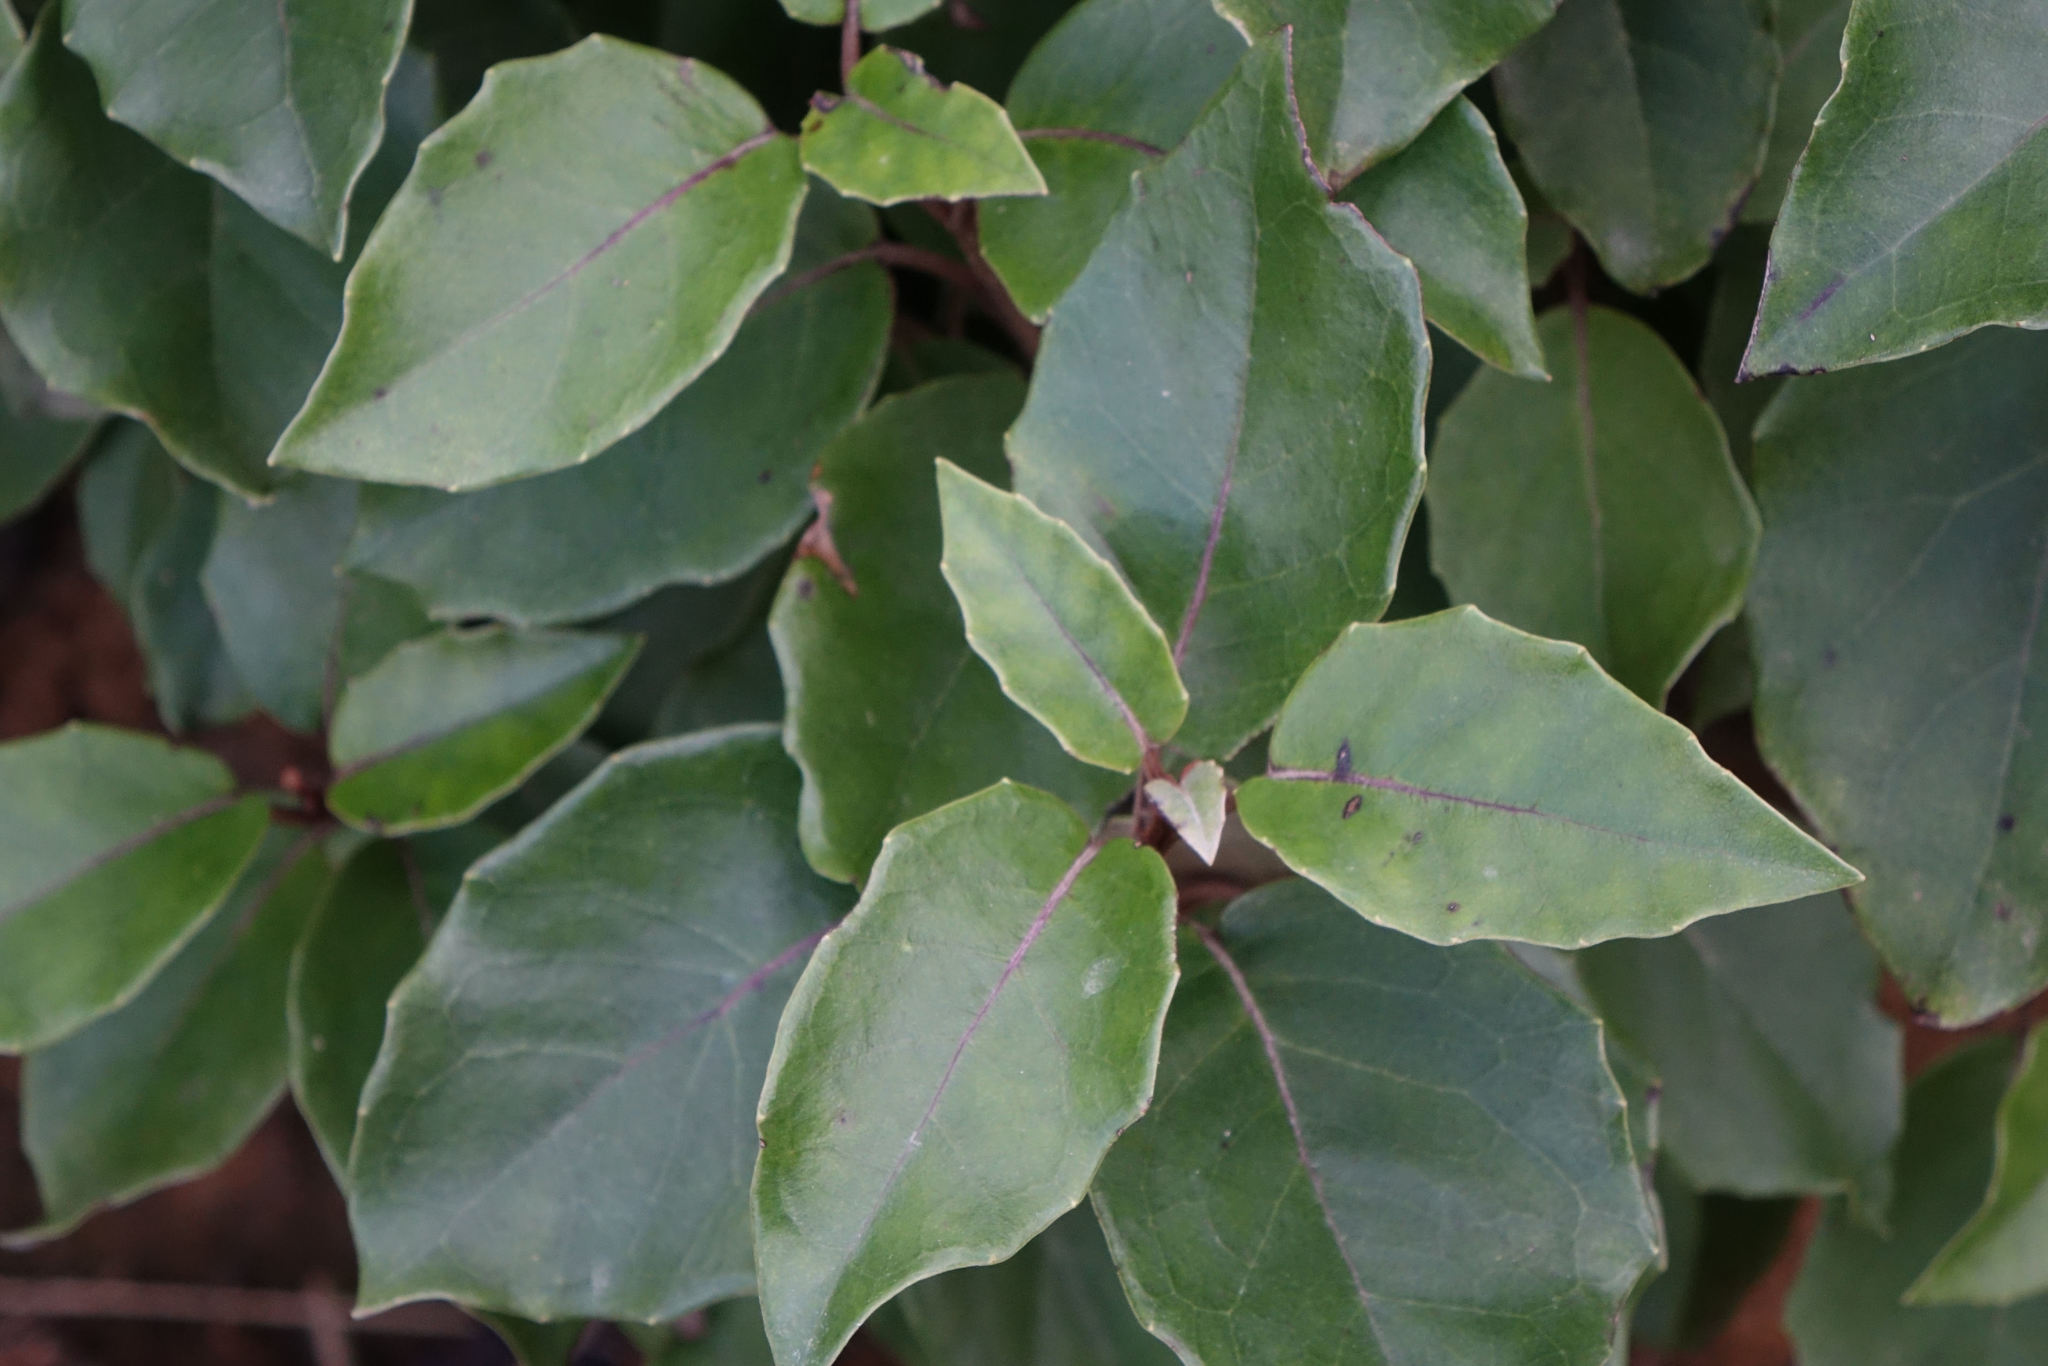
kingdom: Plantae
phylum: Tracheophyta
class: Magnoliopsida
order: Asterales
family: Asteraceae
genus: Olearia
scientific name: Olearia arborescens
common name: Glossy tree daisy
